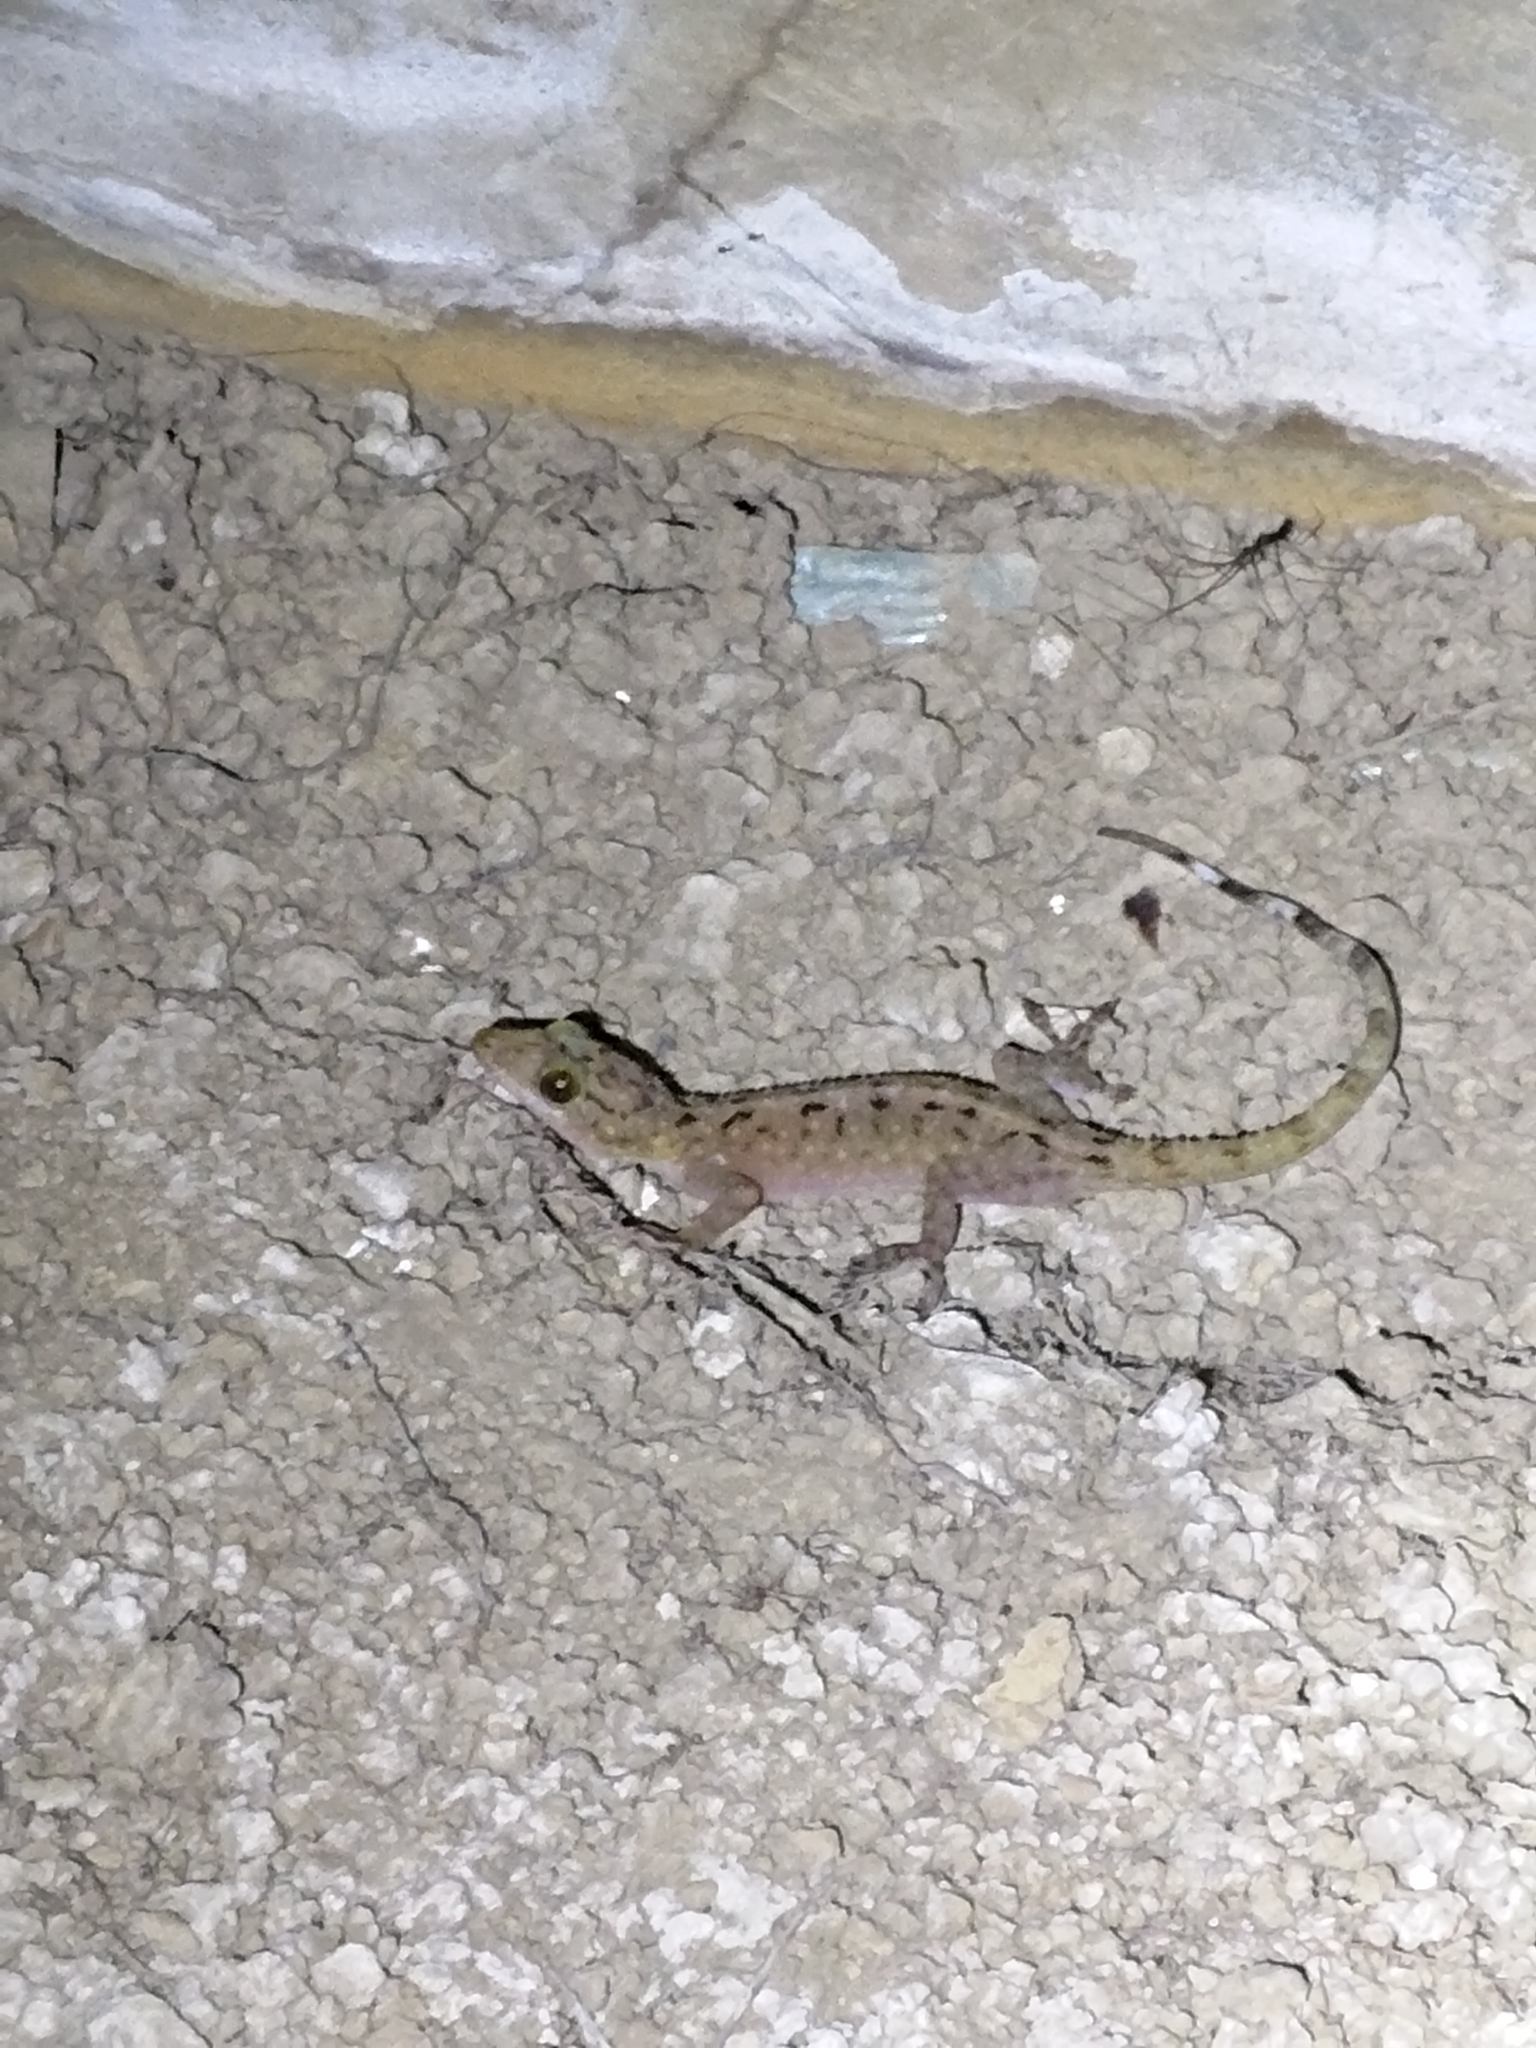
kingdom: Animalia
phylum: Chordata
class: Squamata
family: Gekkonidae
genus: Gekko
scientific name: Gekko monarchus
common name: Spotted house gecko
